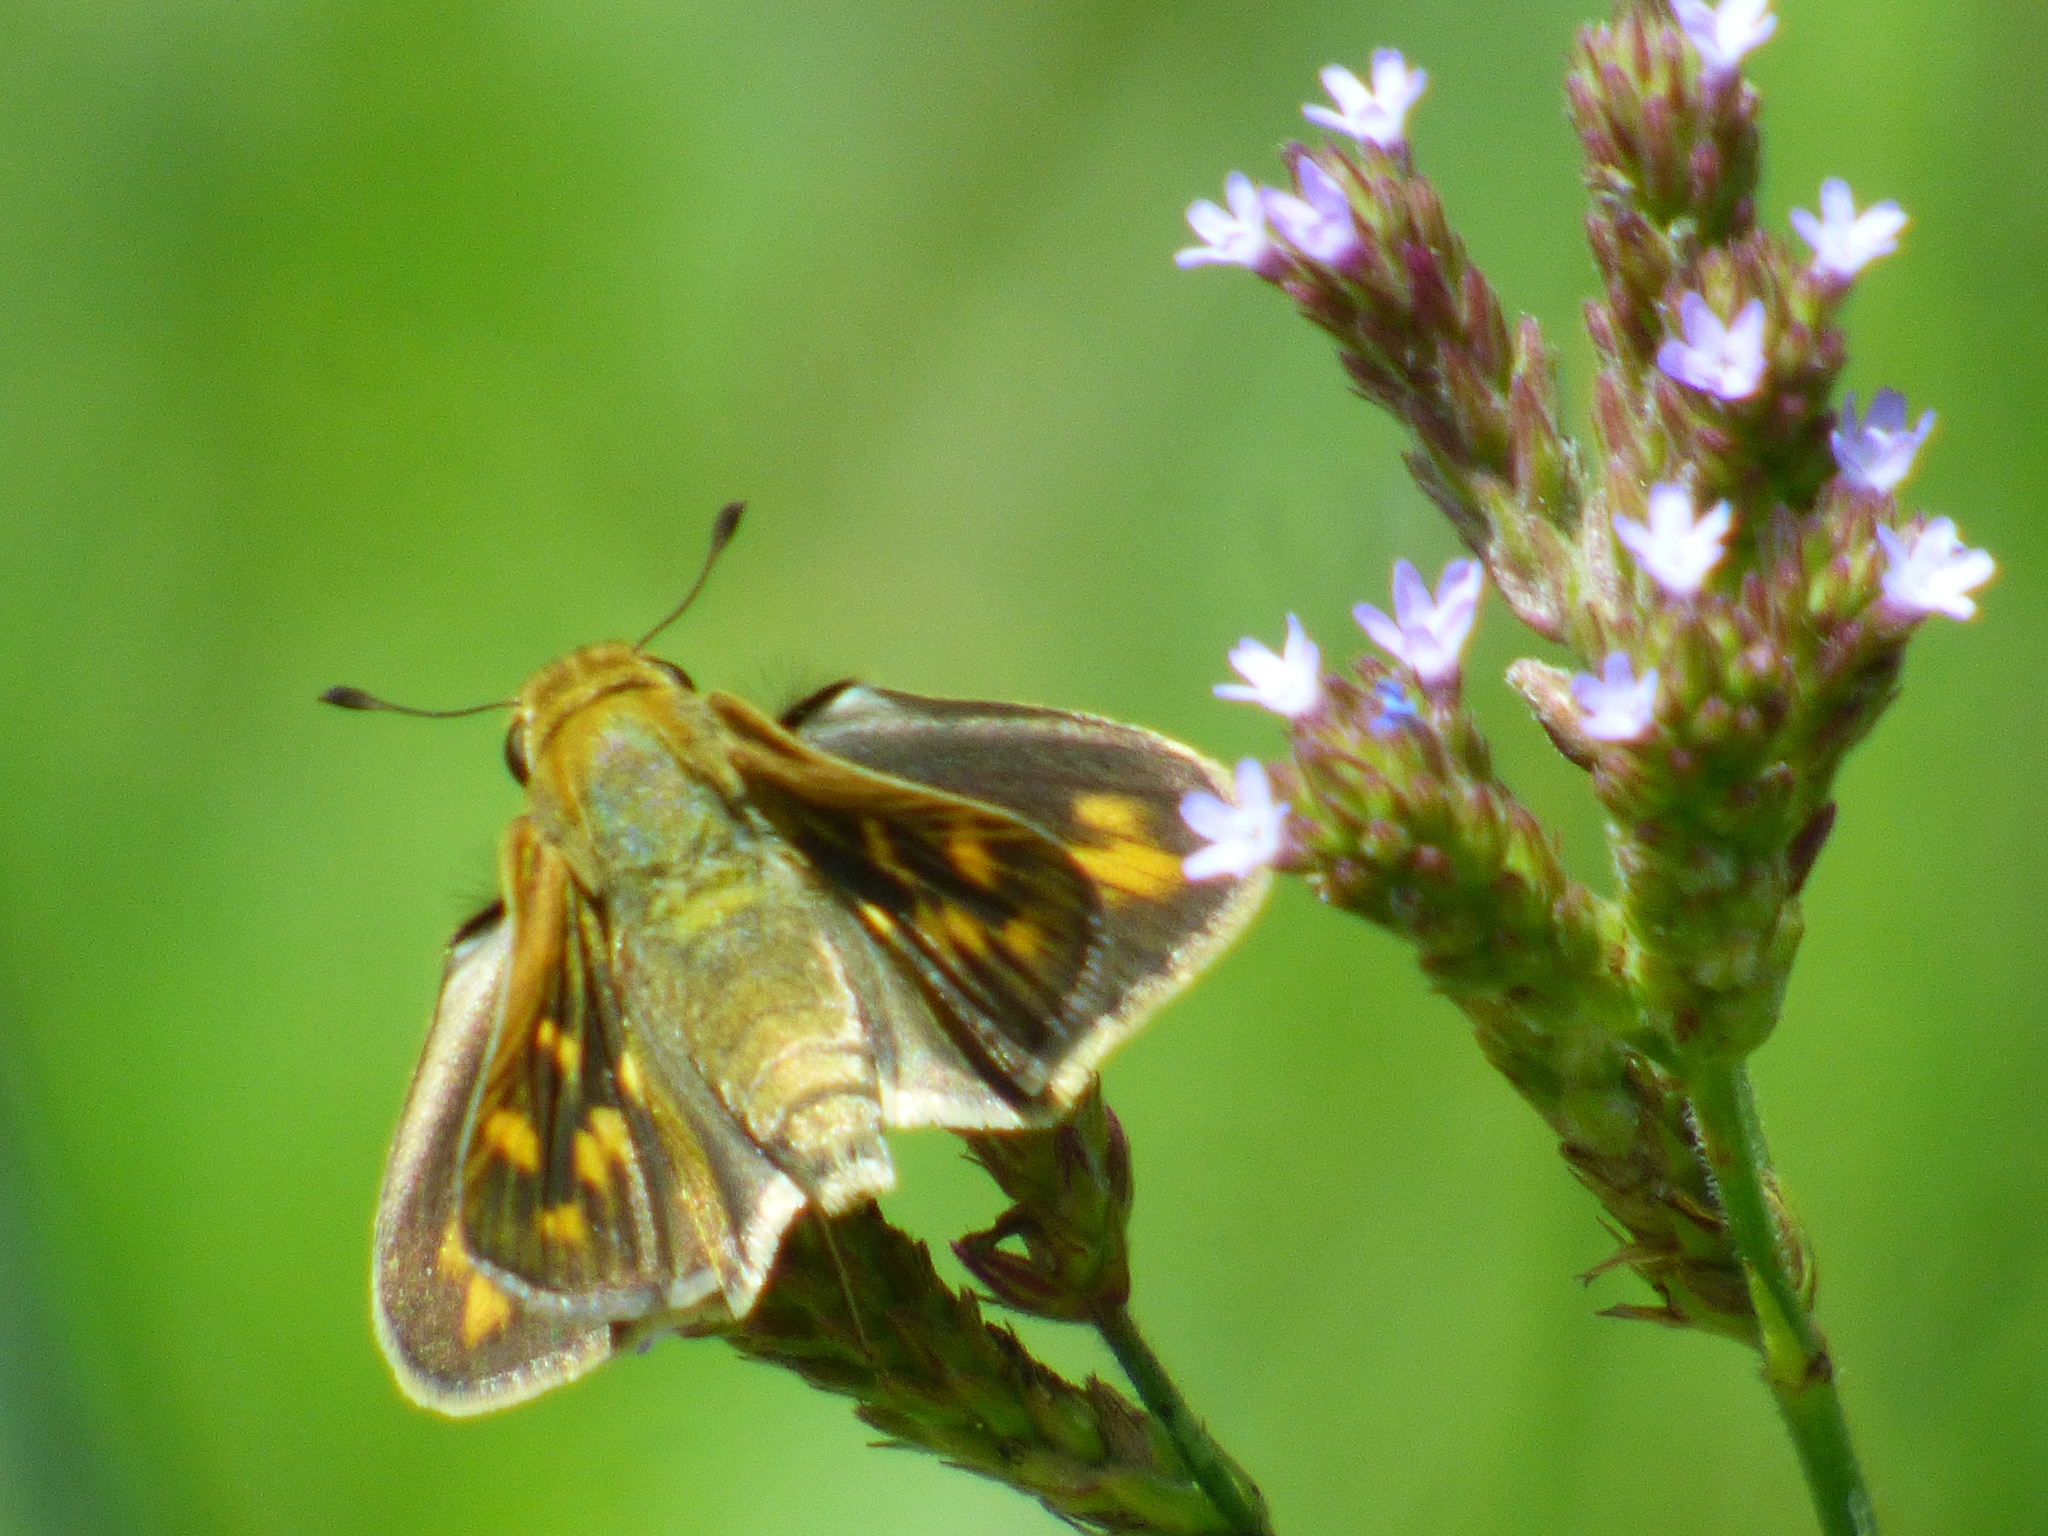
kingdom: Animalia
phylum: Arthropoda
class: Insecta
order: Lepidoptera
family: Hesperiidae
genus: Hylephila
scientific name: Hylephila phyleus
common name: Fiery skipper
